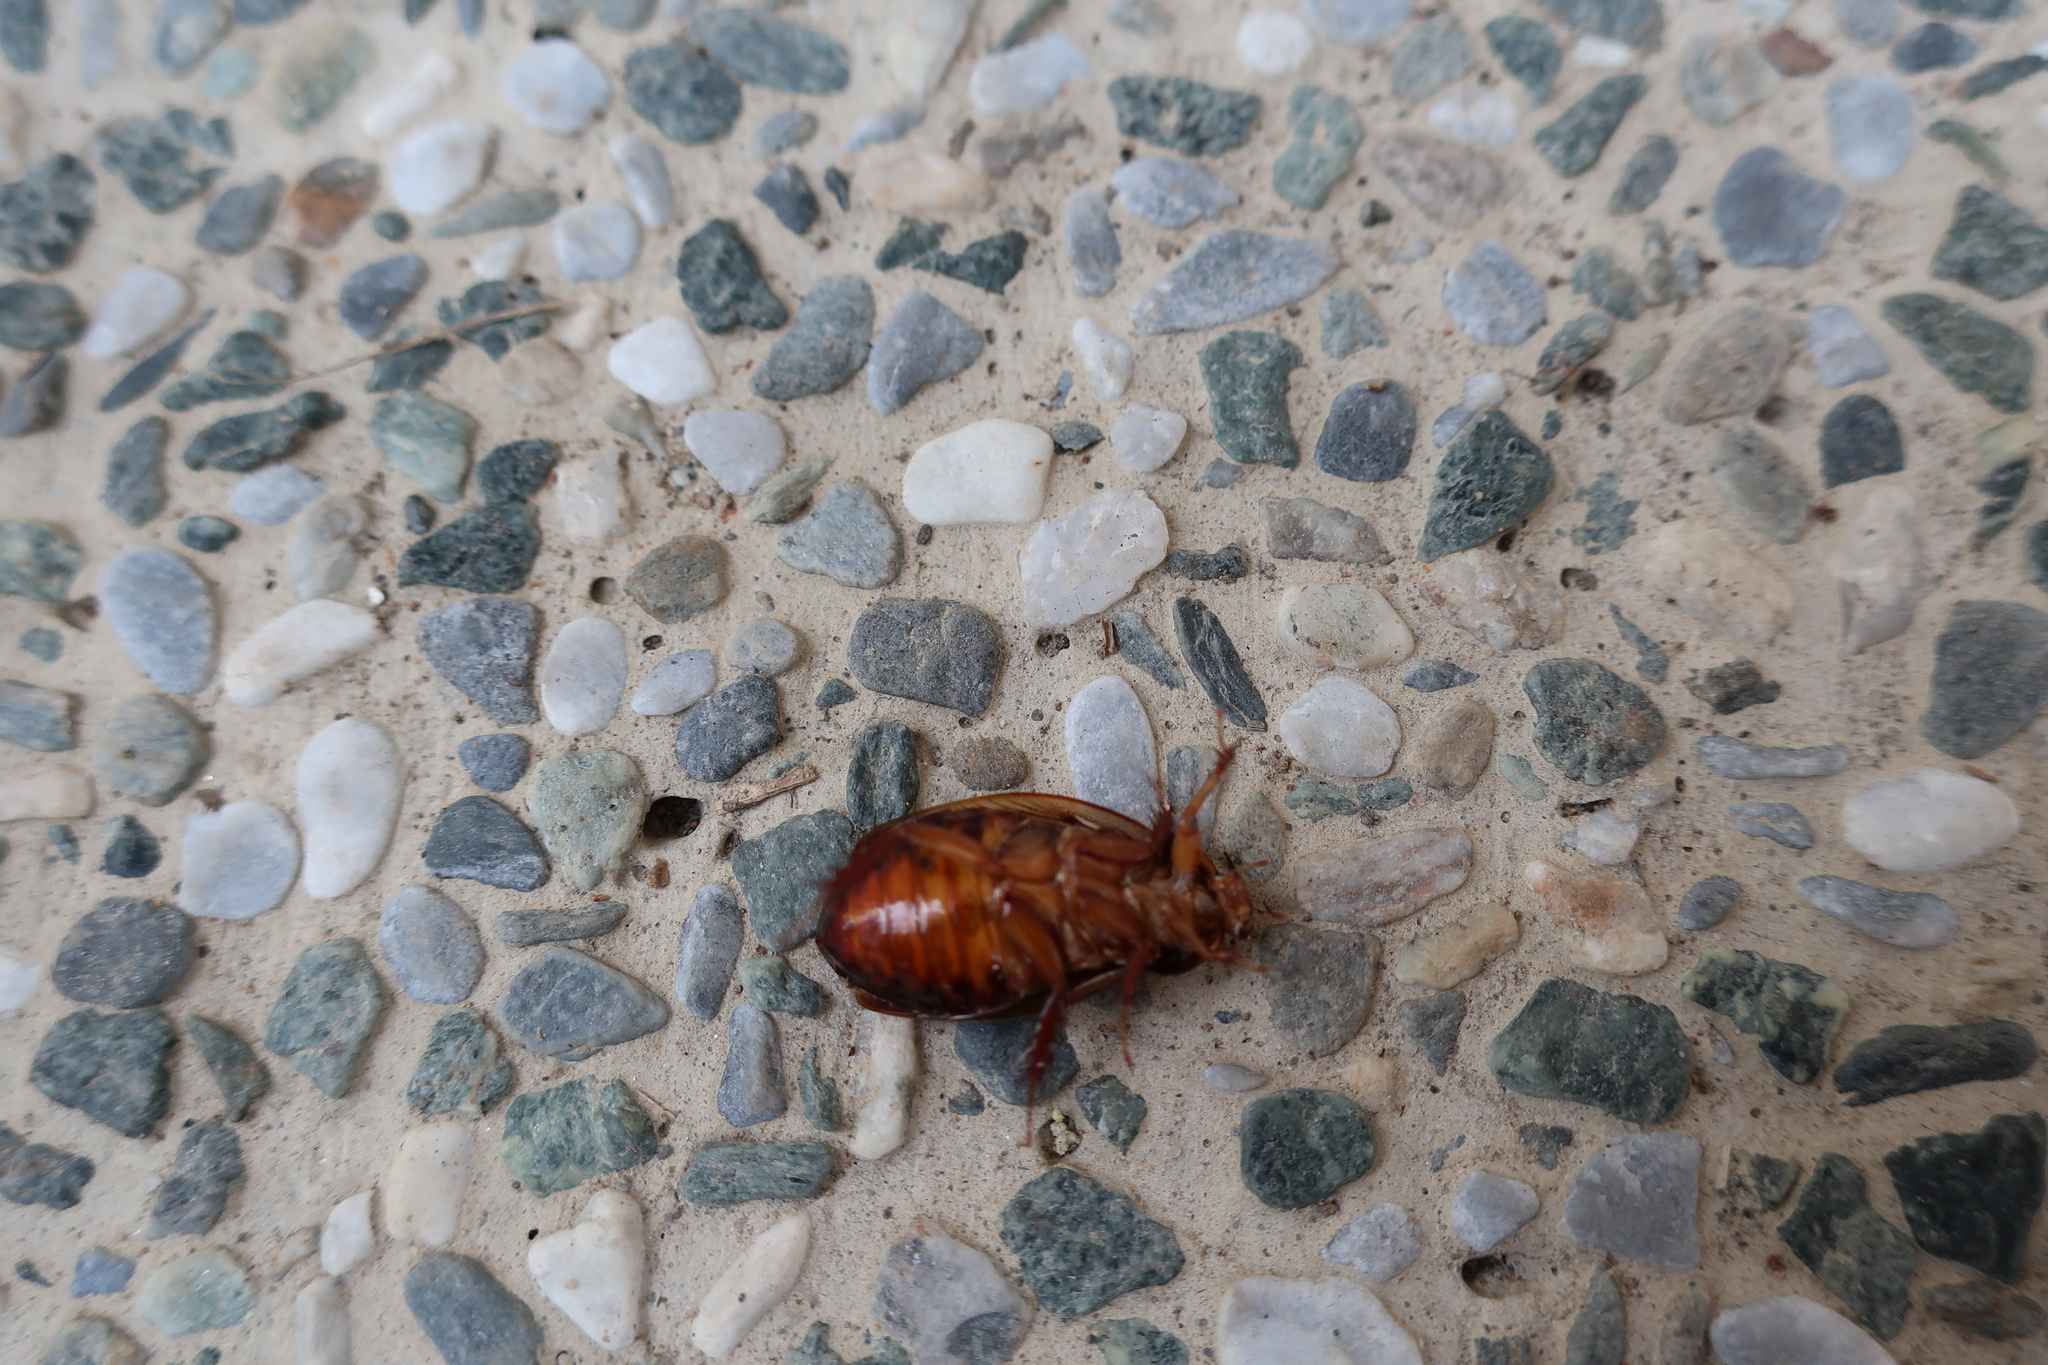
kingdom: Animalia
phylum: Arthropoda
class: Insecta
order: Blattodea
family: Blaberidae
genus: Pycnoscelus
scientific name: Pycnoscelus surinamensis
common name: Surinam cockroach
